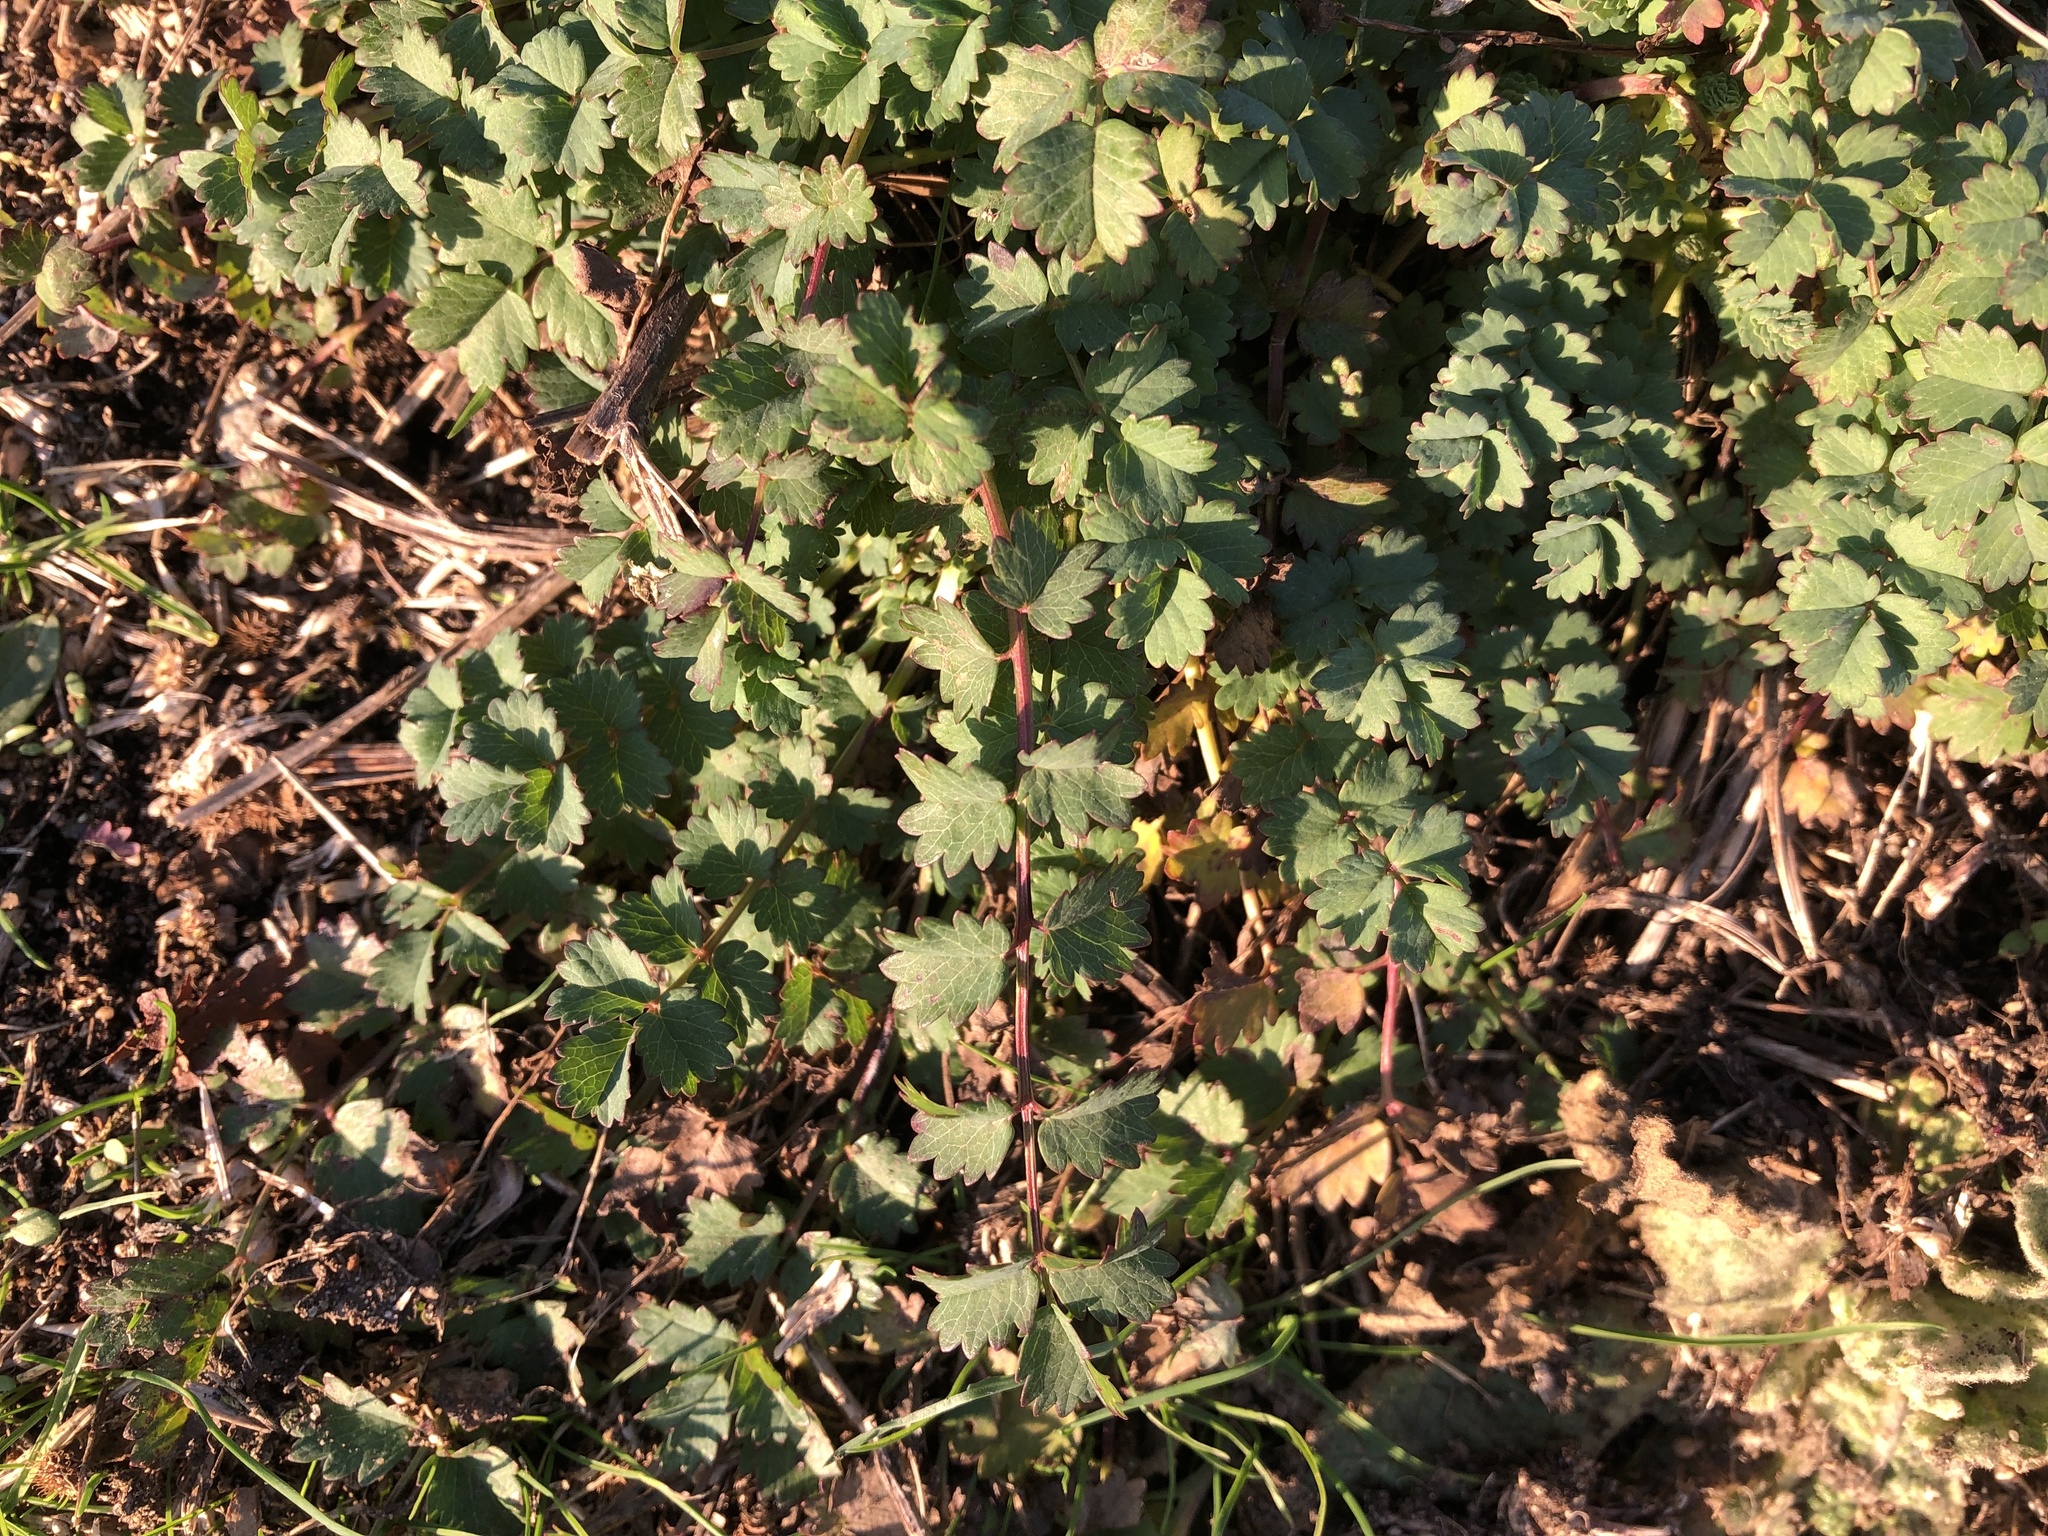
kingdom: Plantae
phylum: Tracheophyta
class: Magnoliopsida
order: Rosales
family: Rosaceae
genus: Poterium
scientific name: Poterium sanguisorba
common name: Salad burnet
